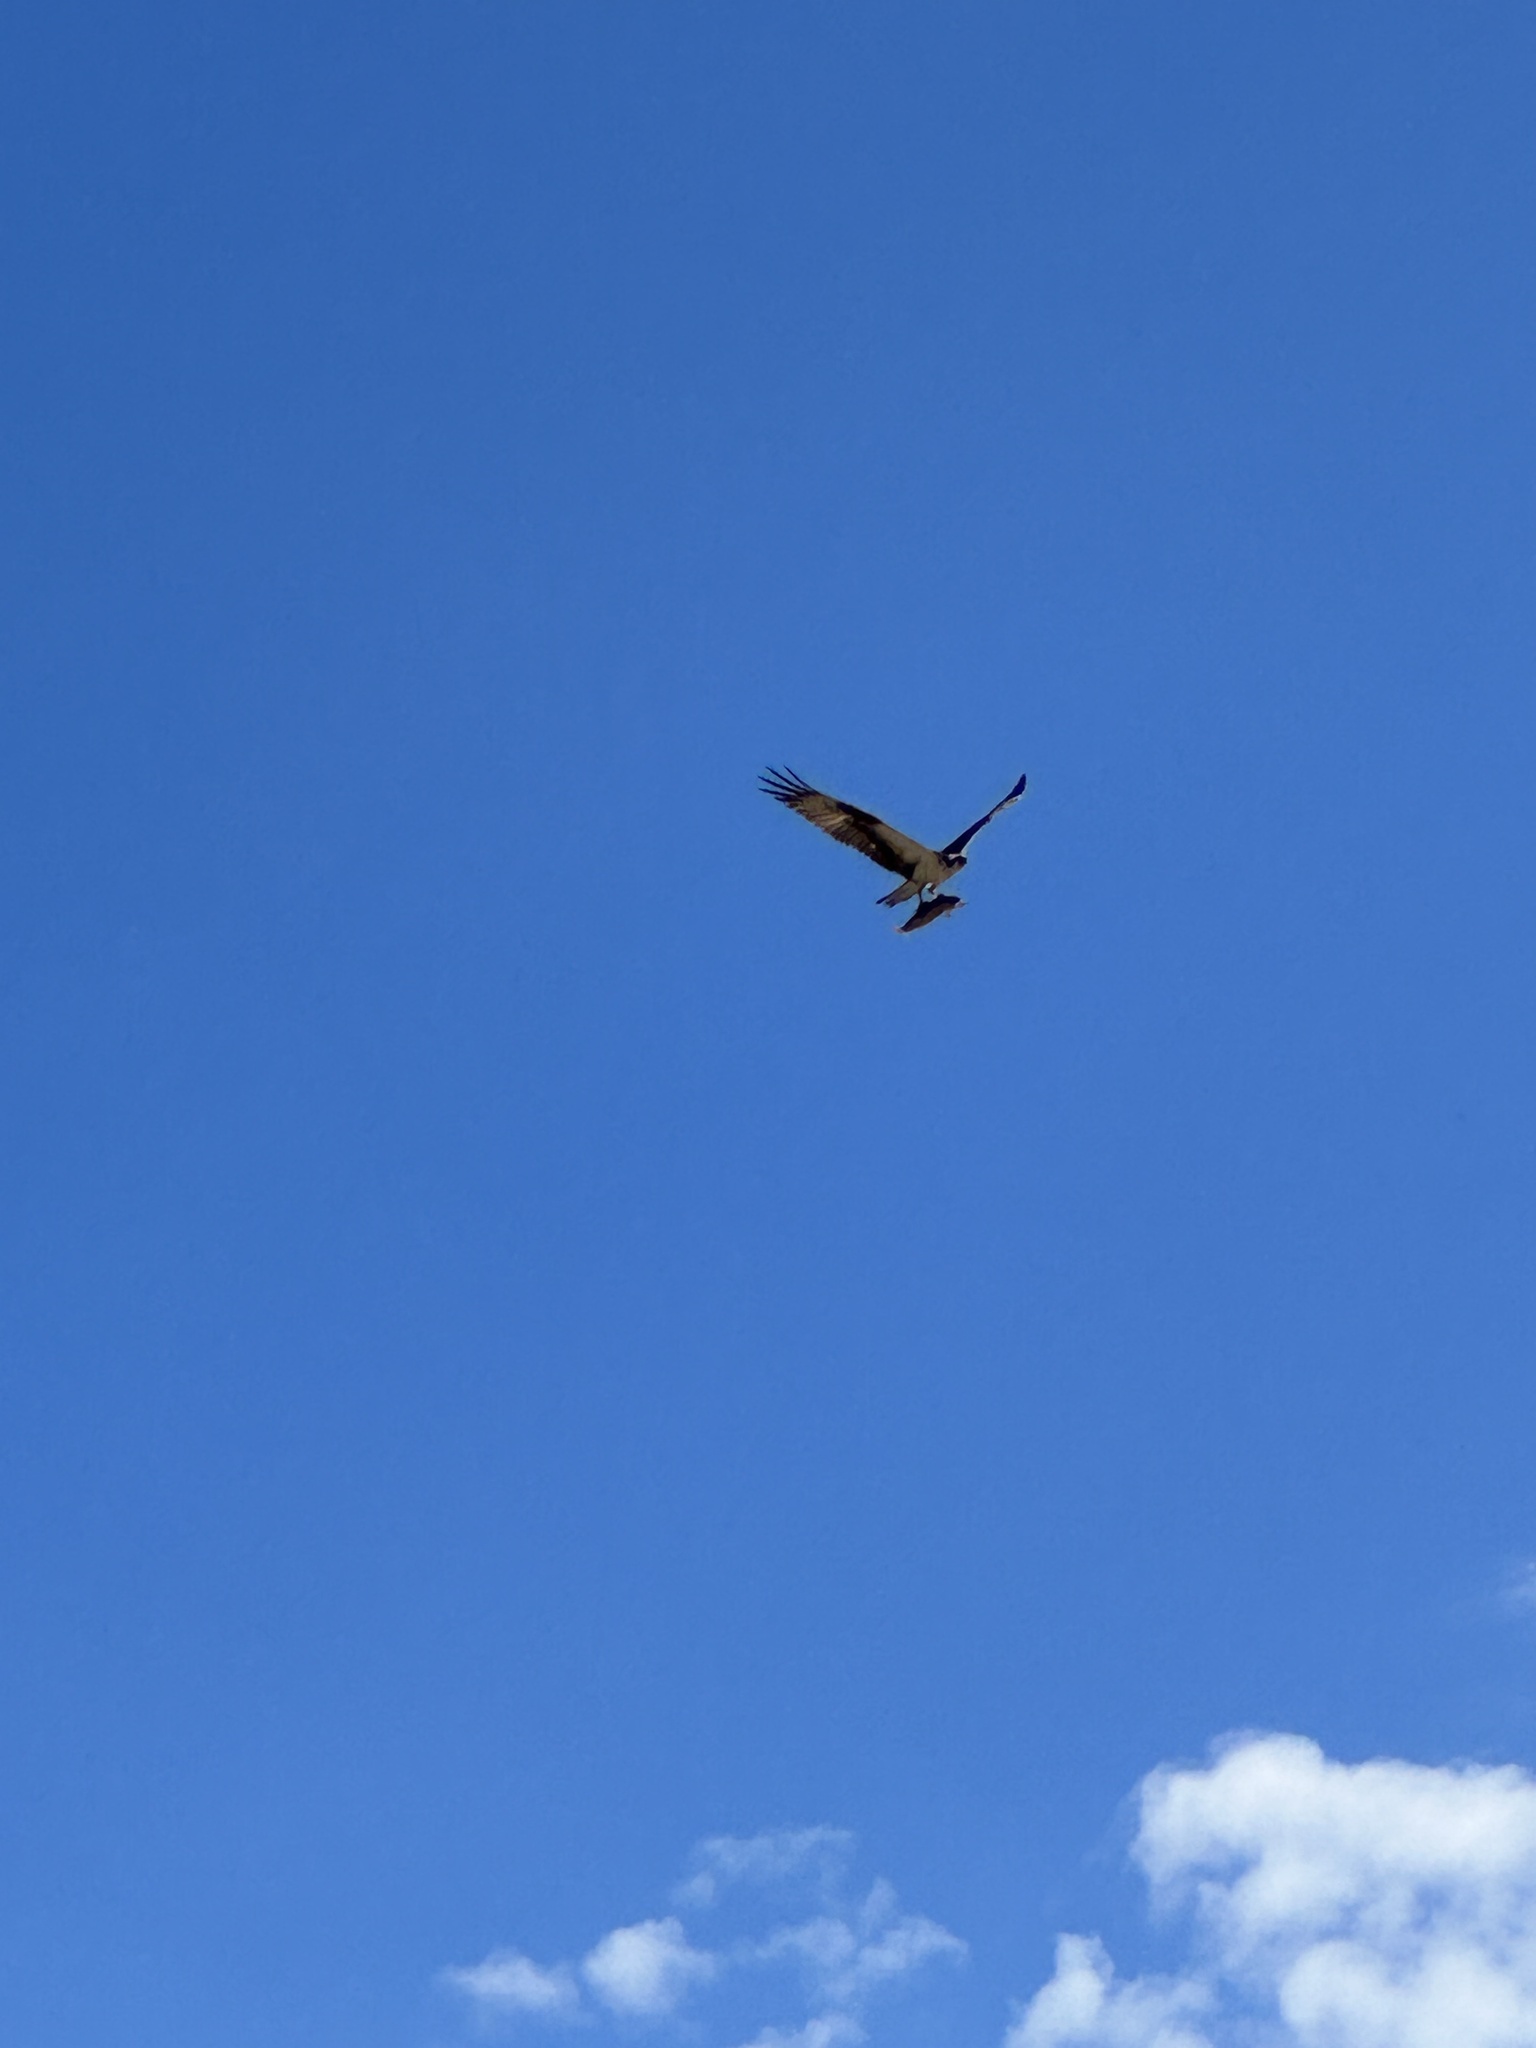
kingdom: Animalia
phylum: Chordata
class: Aves
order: Accipitriformes
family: Pandionidae
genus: Pandion
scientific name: Pandion haliaetus
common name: Osprey
